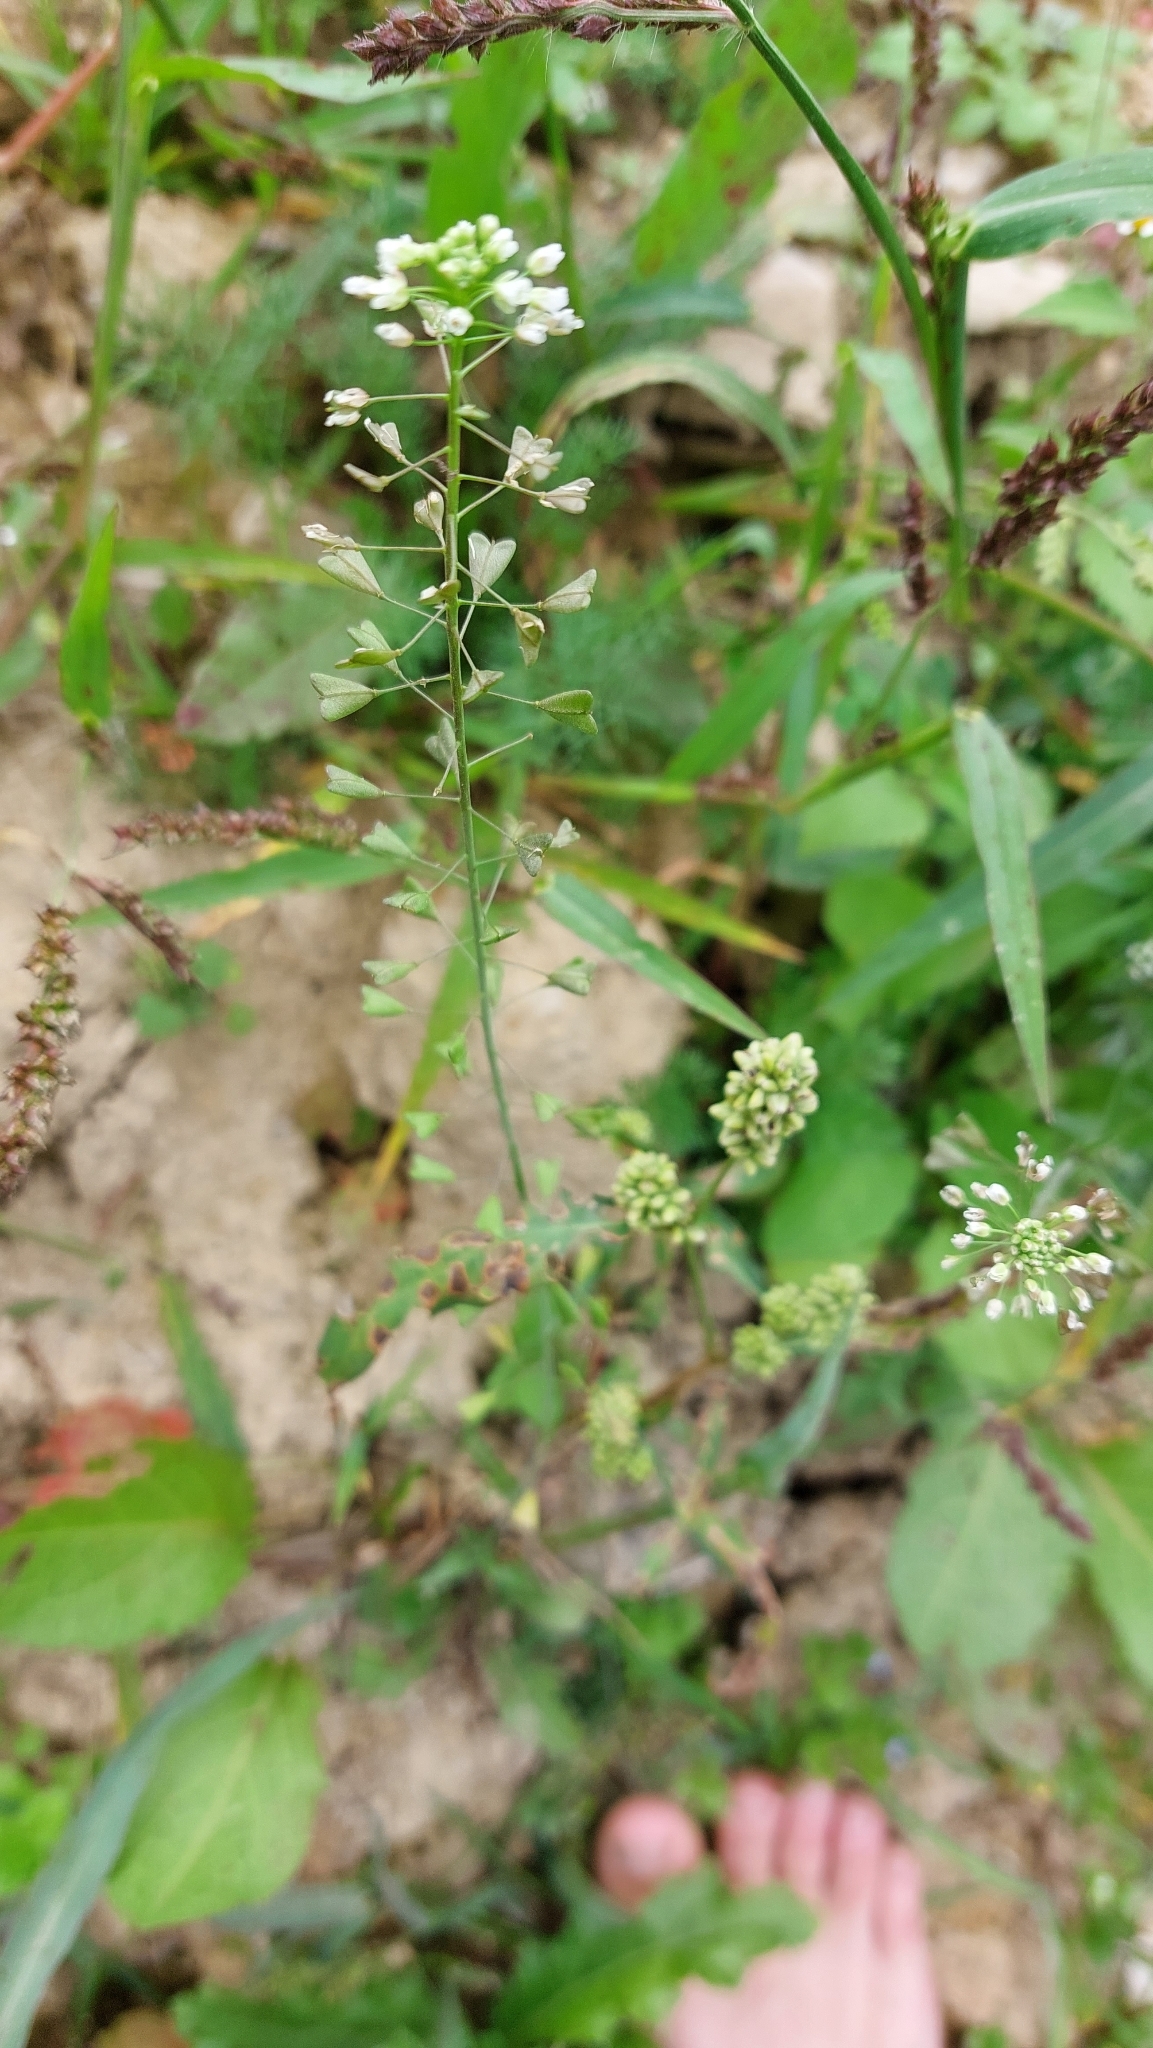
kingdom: Plantae
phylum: Tracheophyta
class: Magnoliopsida
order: Brassicales
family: Brassicaceae
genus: Capsella
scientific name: Capsella bursa-pastoris
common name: Shepherd's purse
